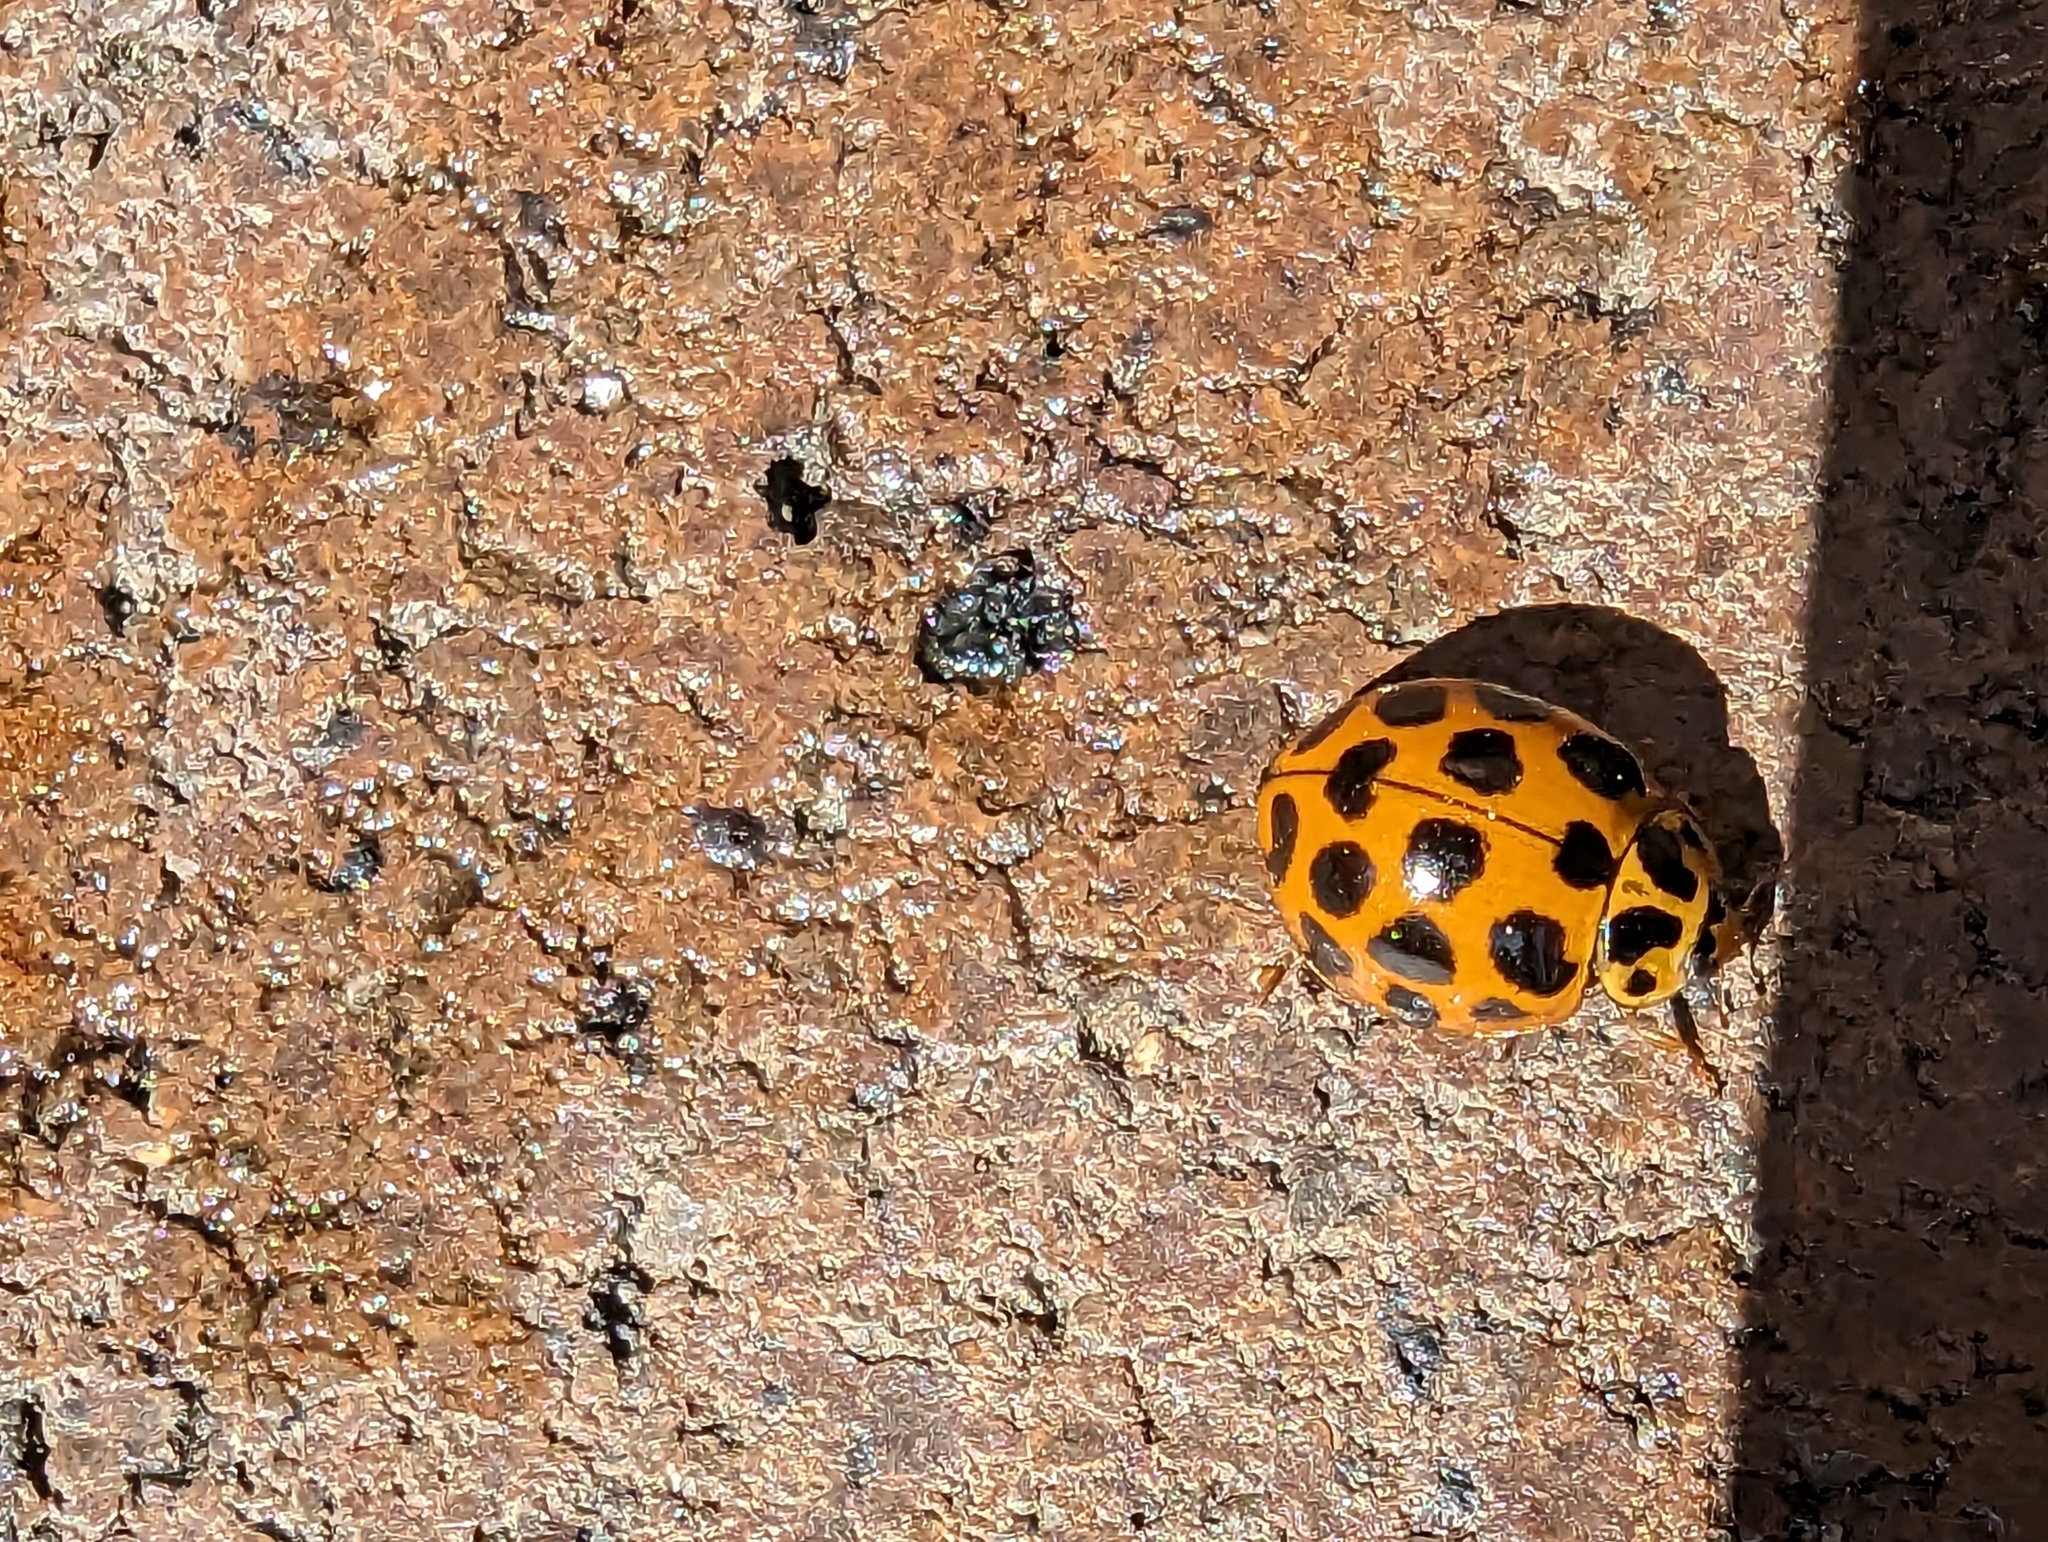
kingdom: Animalia
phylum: Arthropoda
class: Insecta
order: Coleoptera
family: Coccinellidae
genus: Harmonia
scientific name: Harmonia conformis
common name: Common spotted ladybird beetle
